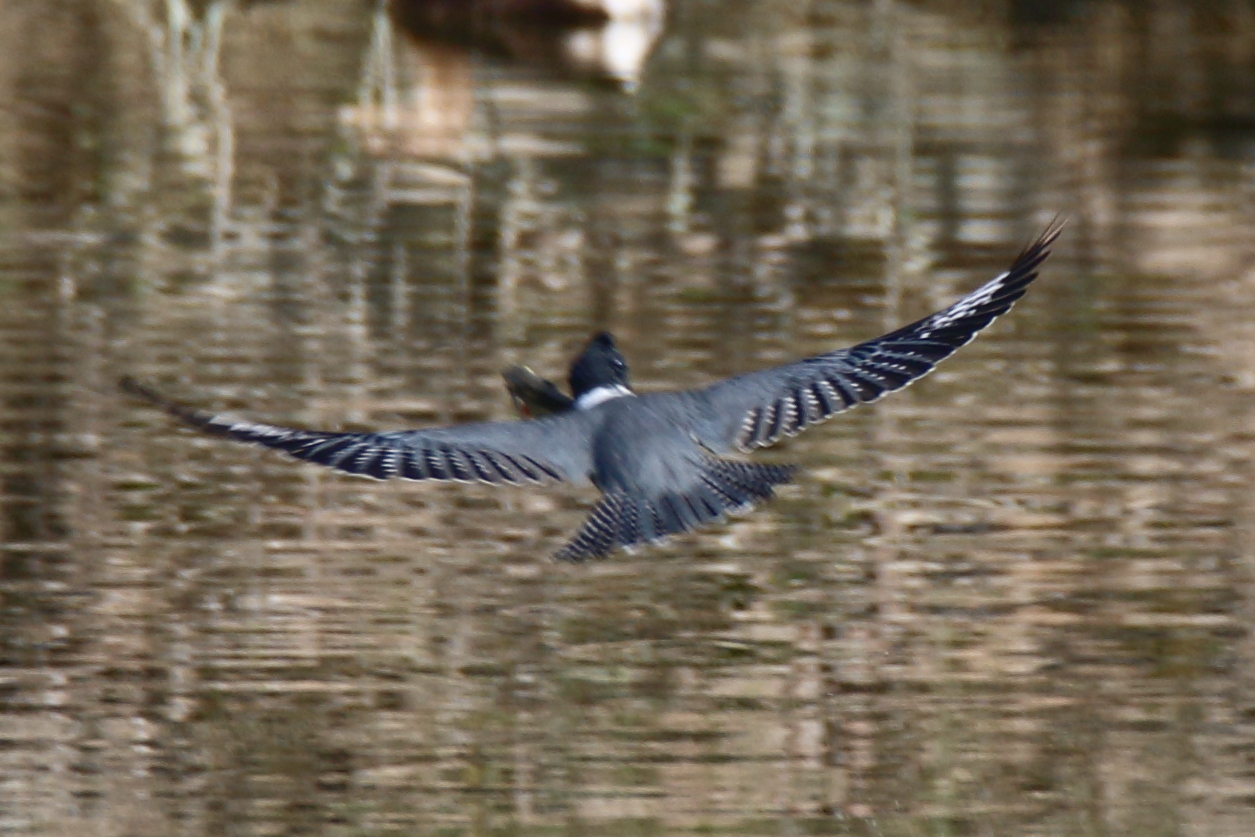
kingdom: Animalia
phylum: Chordata
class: Aves
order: Coraciiformes
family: Alcedinidae
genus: Megaceryle
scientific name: Megaceryle alcyon
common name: Belted kingfisher
